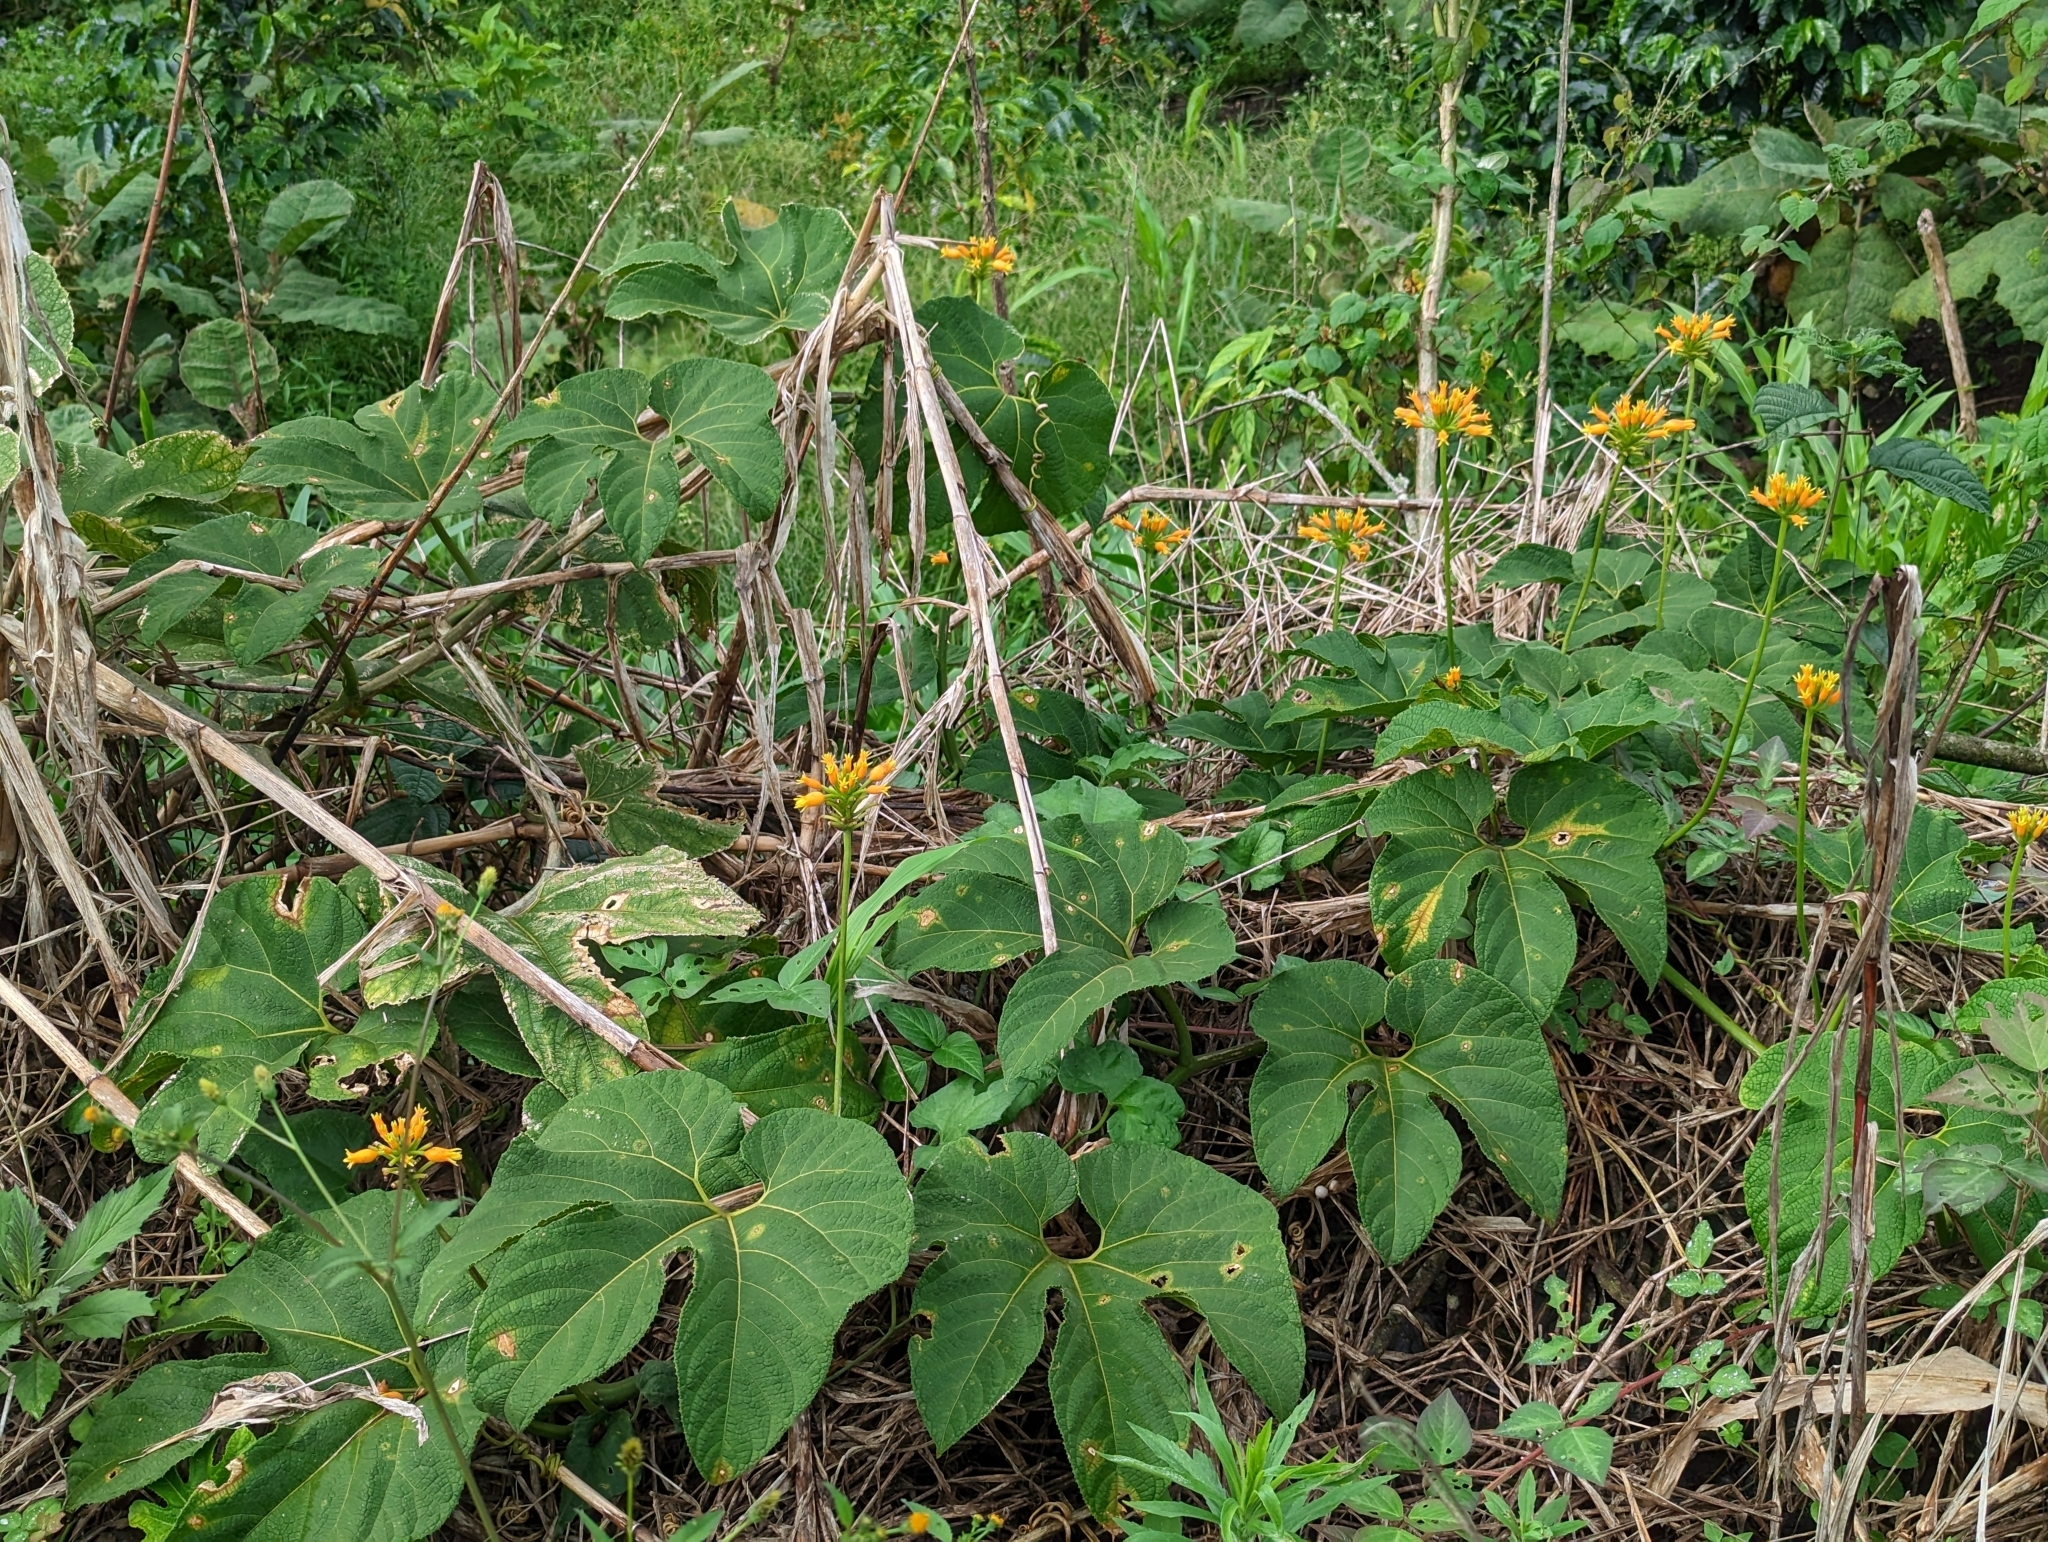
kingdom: Plantae
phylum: Tracheophyta
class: Magnoliopsida
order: Cucurbitales
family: Cucurbitaceae
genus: Gurania
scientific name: Gurania lobata
